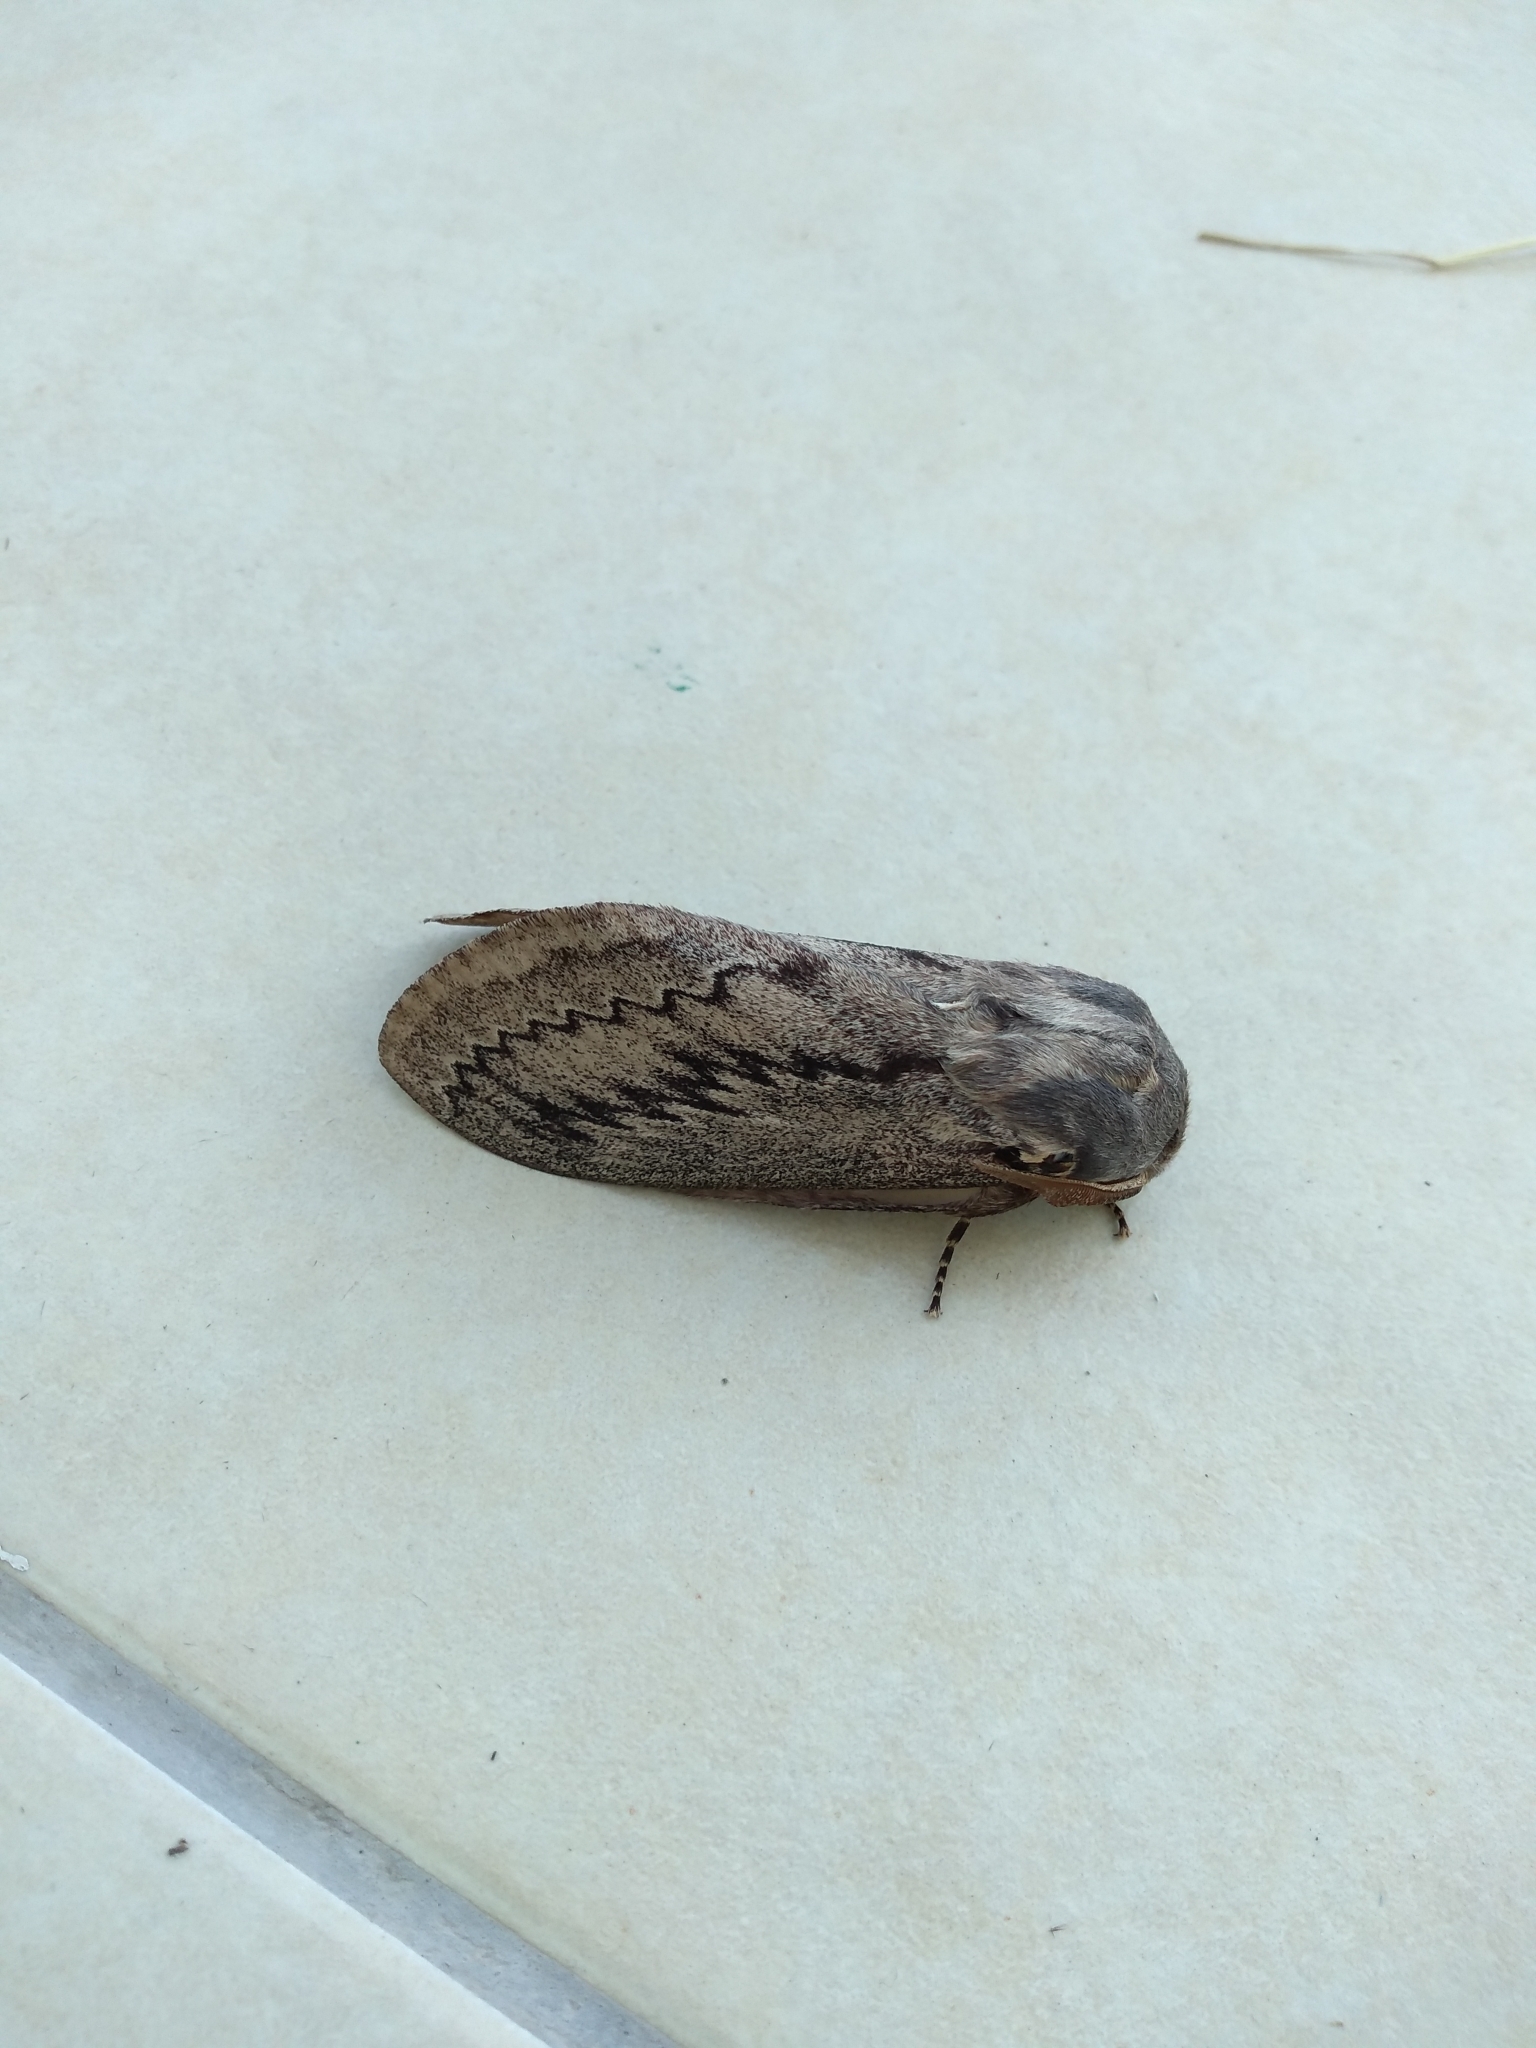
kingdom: Animalia
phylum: Arthropoda
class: Insecta
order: Lepidoptera
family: Lasiocampidae
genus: Pachypasa
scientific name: Pachypasa otus
